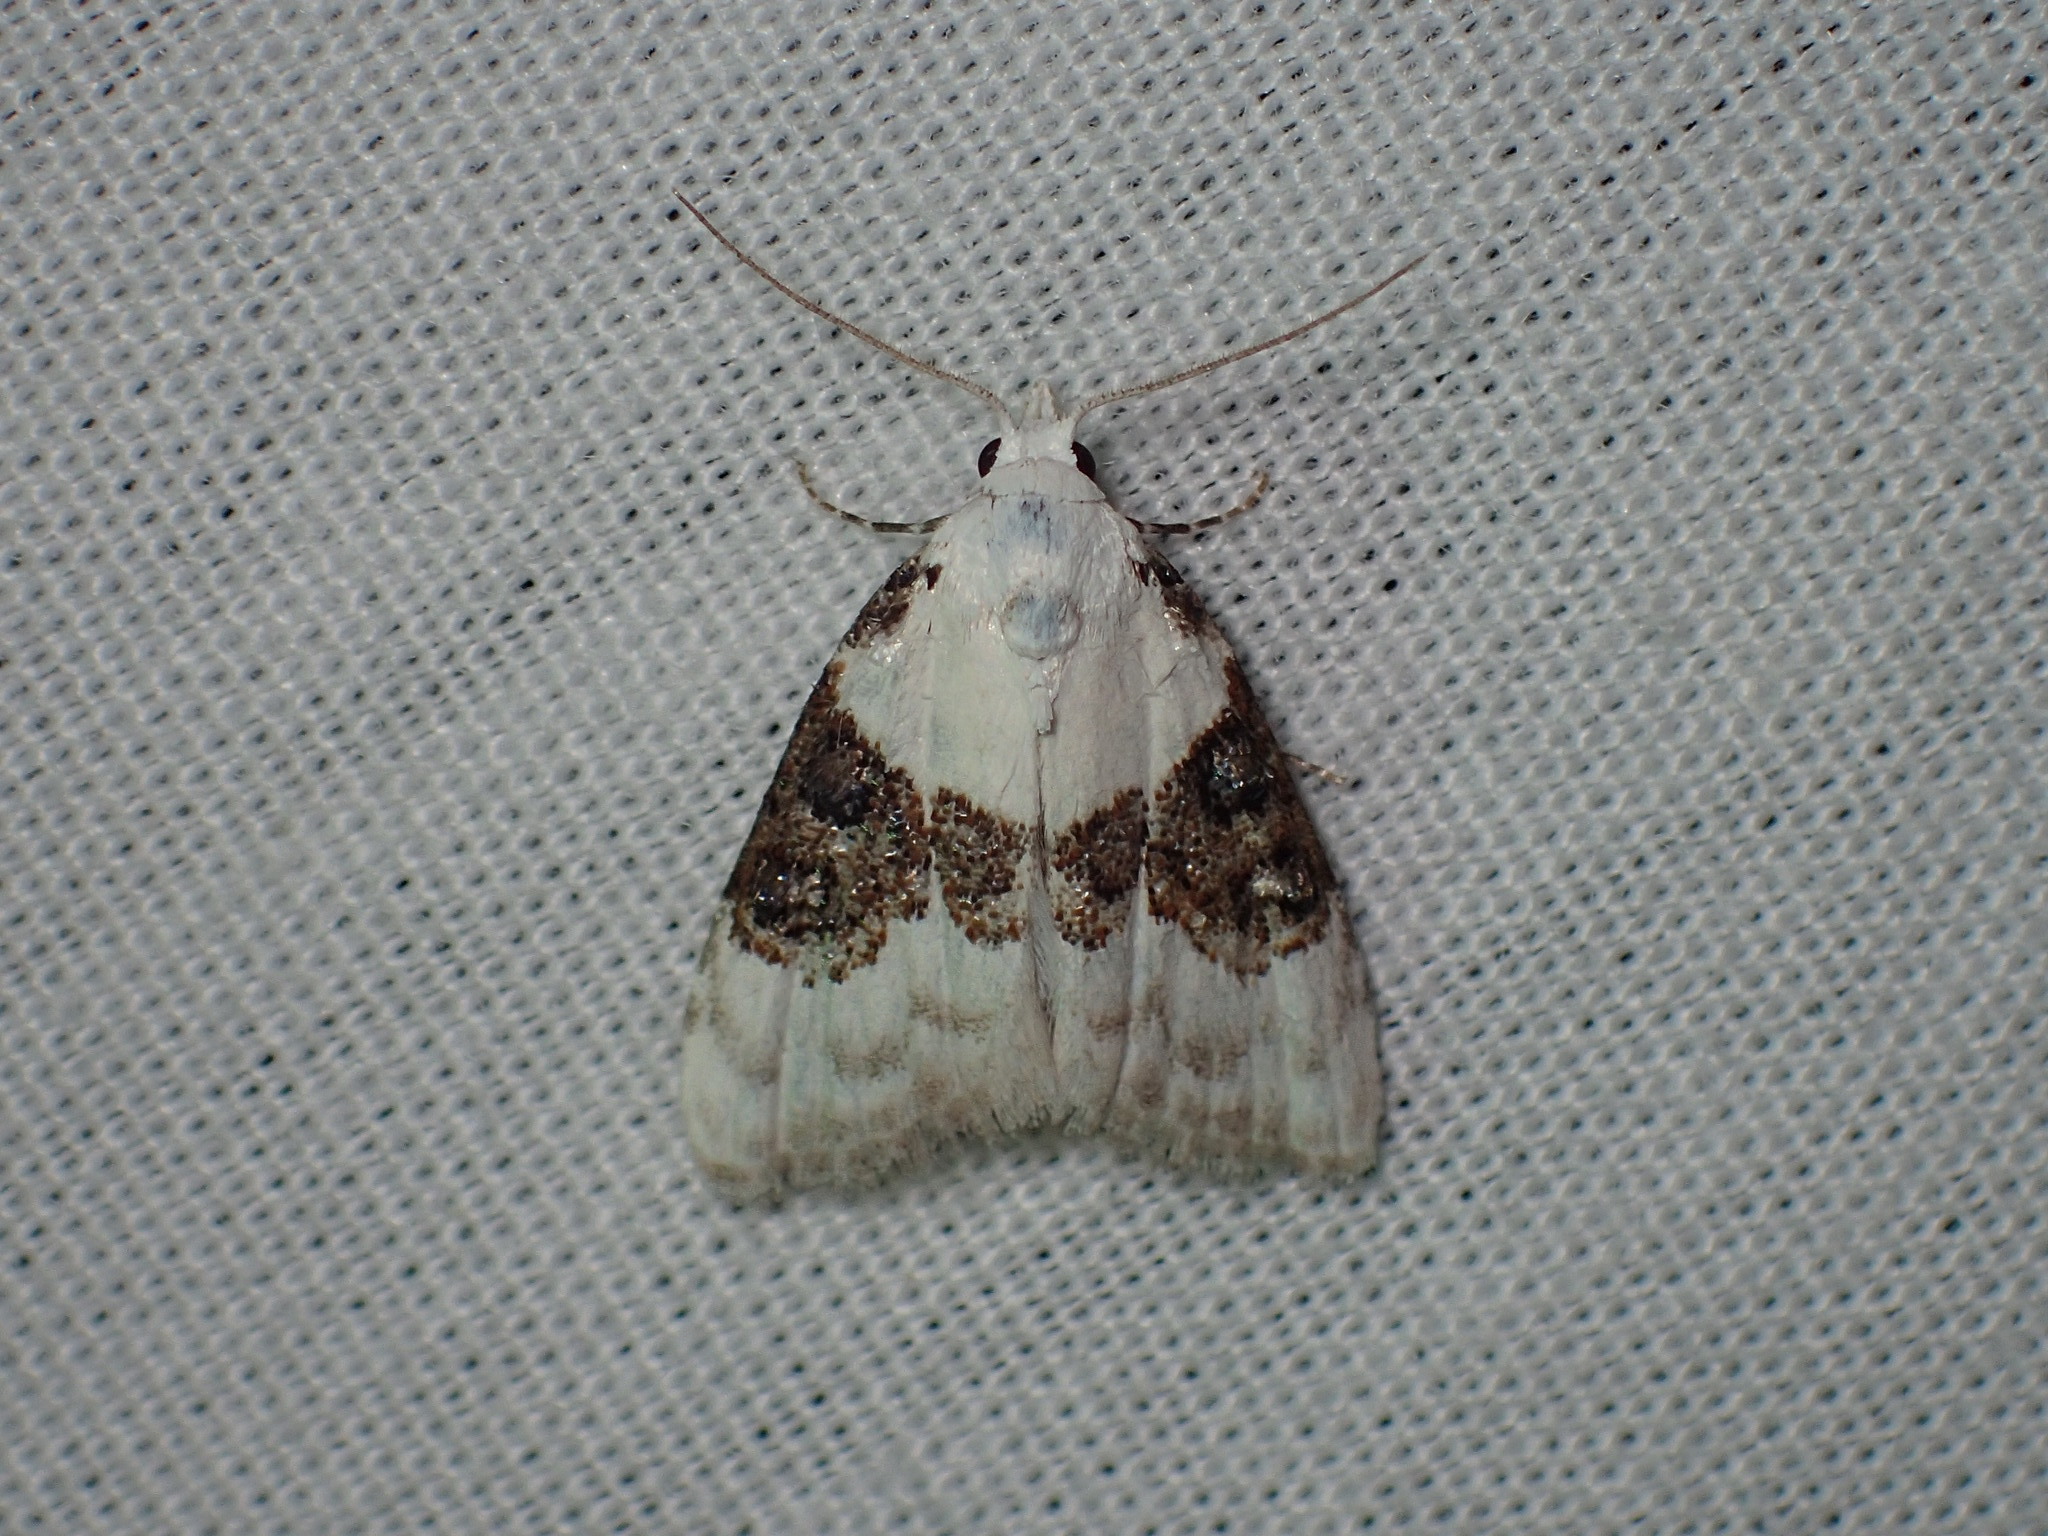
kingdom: Animalia
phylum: Arthropoda
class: Insecta
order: Lepidoptera
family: Nolidae
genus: Nola
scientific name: Nola pustulata
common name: Sharp-blotched nola moth
